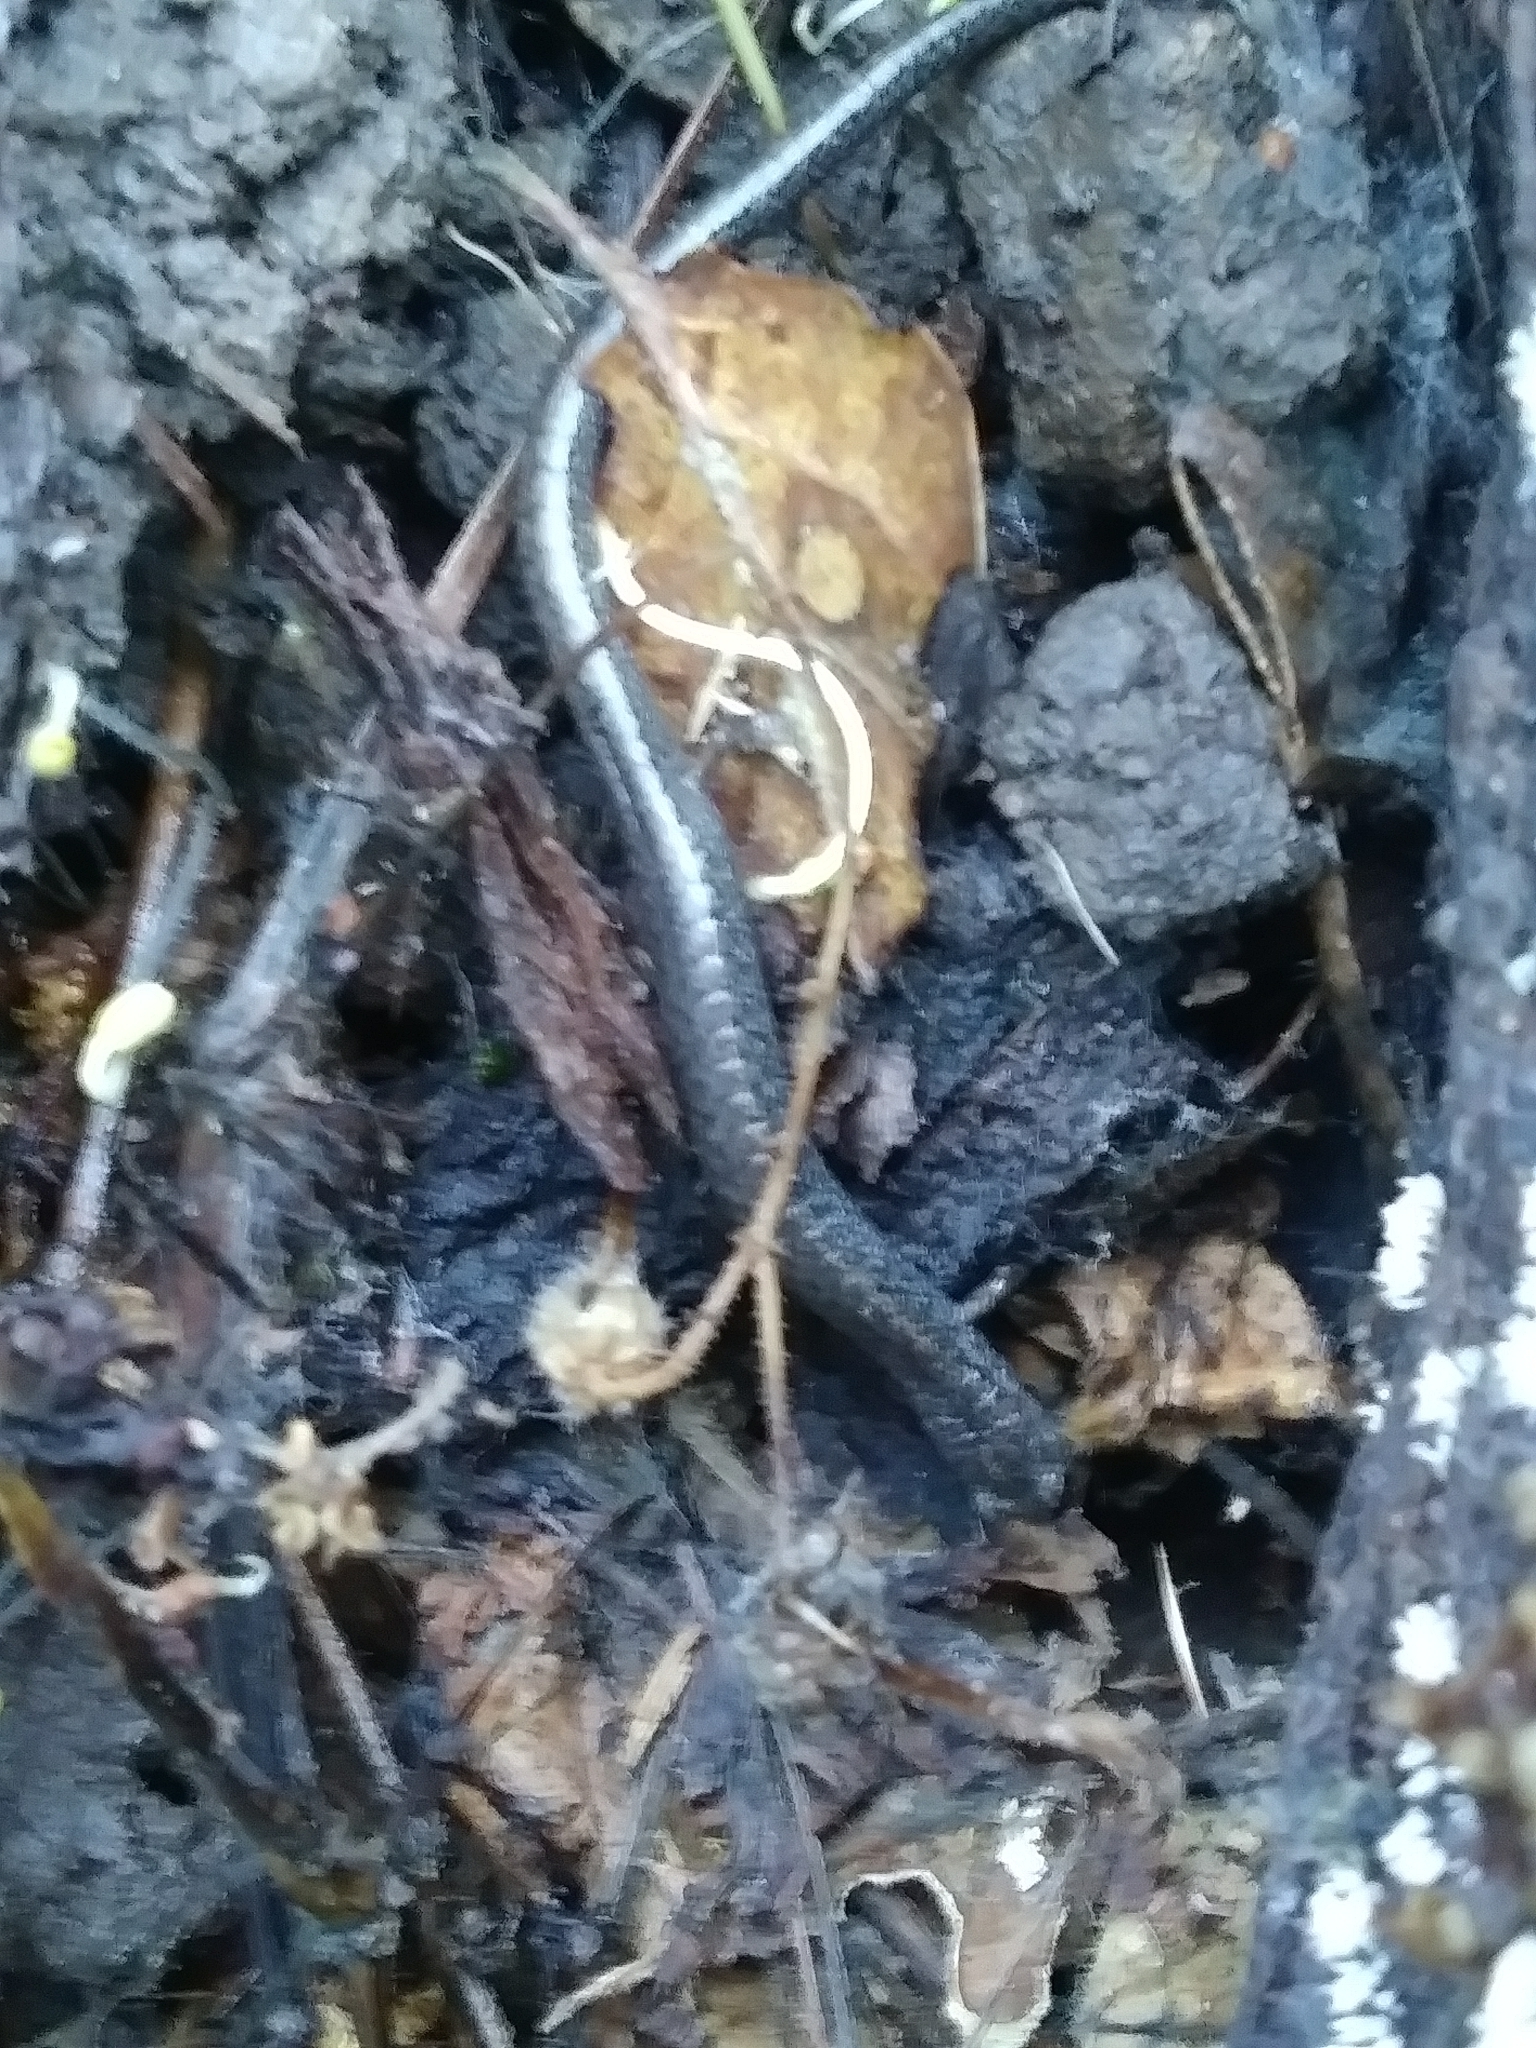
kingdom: Animalia
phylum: Chordata
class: Amphibia
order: Caudata
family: Plethodontidae
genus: Batrachoseps
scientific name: Batrachoseps attenuatus
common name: California slender salamander
